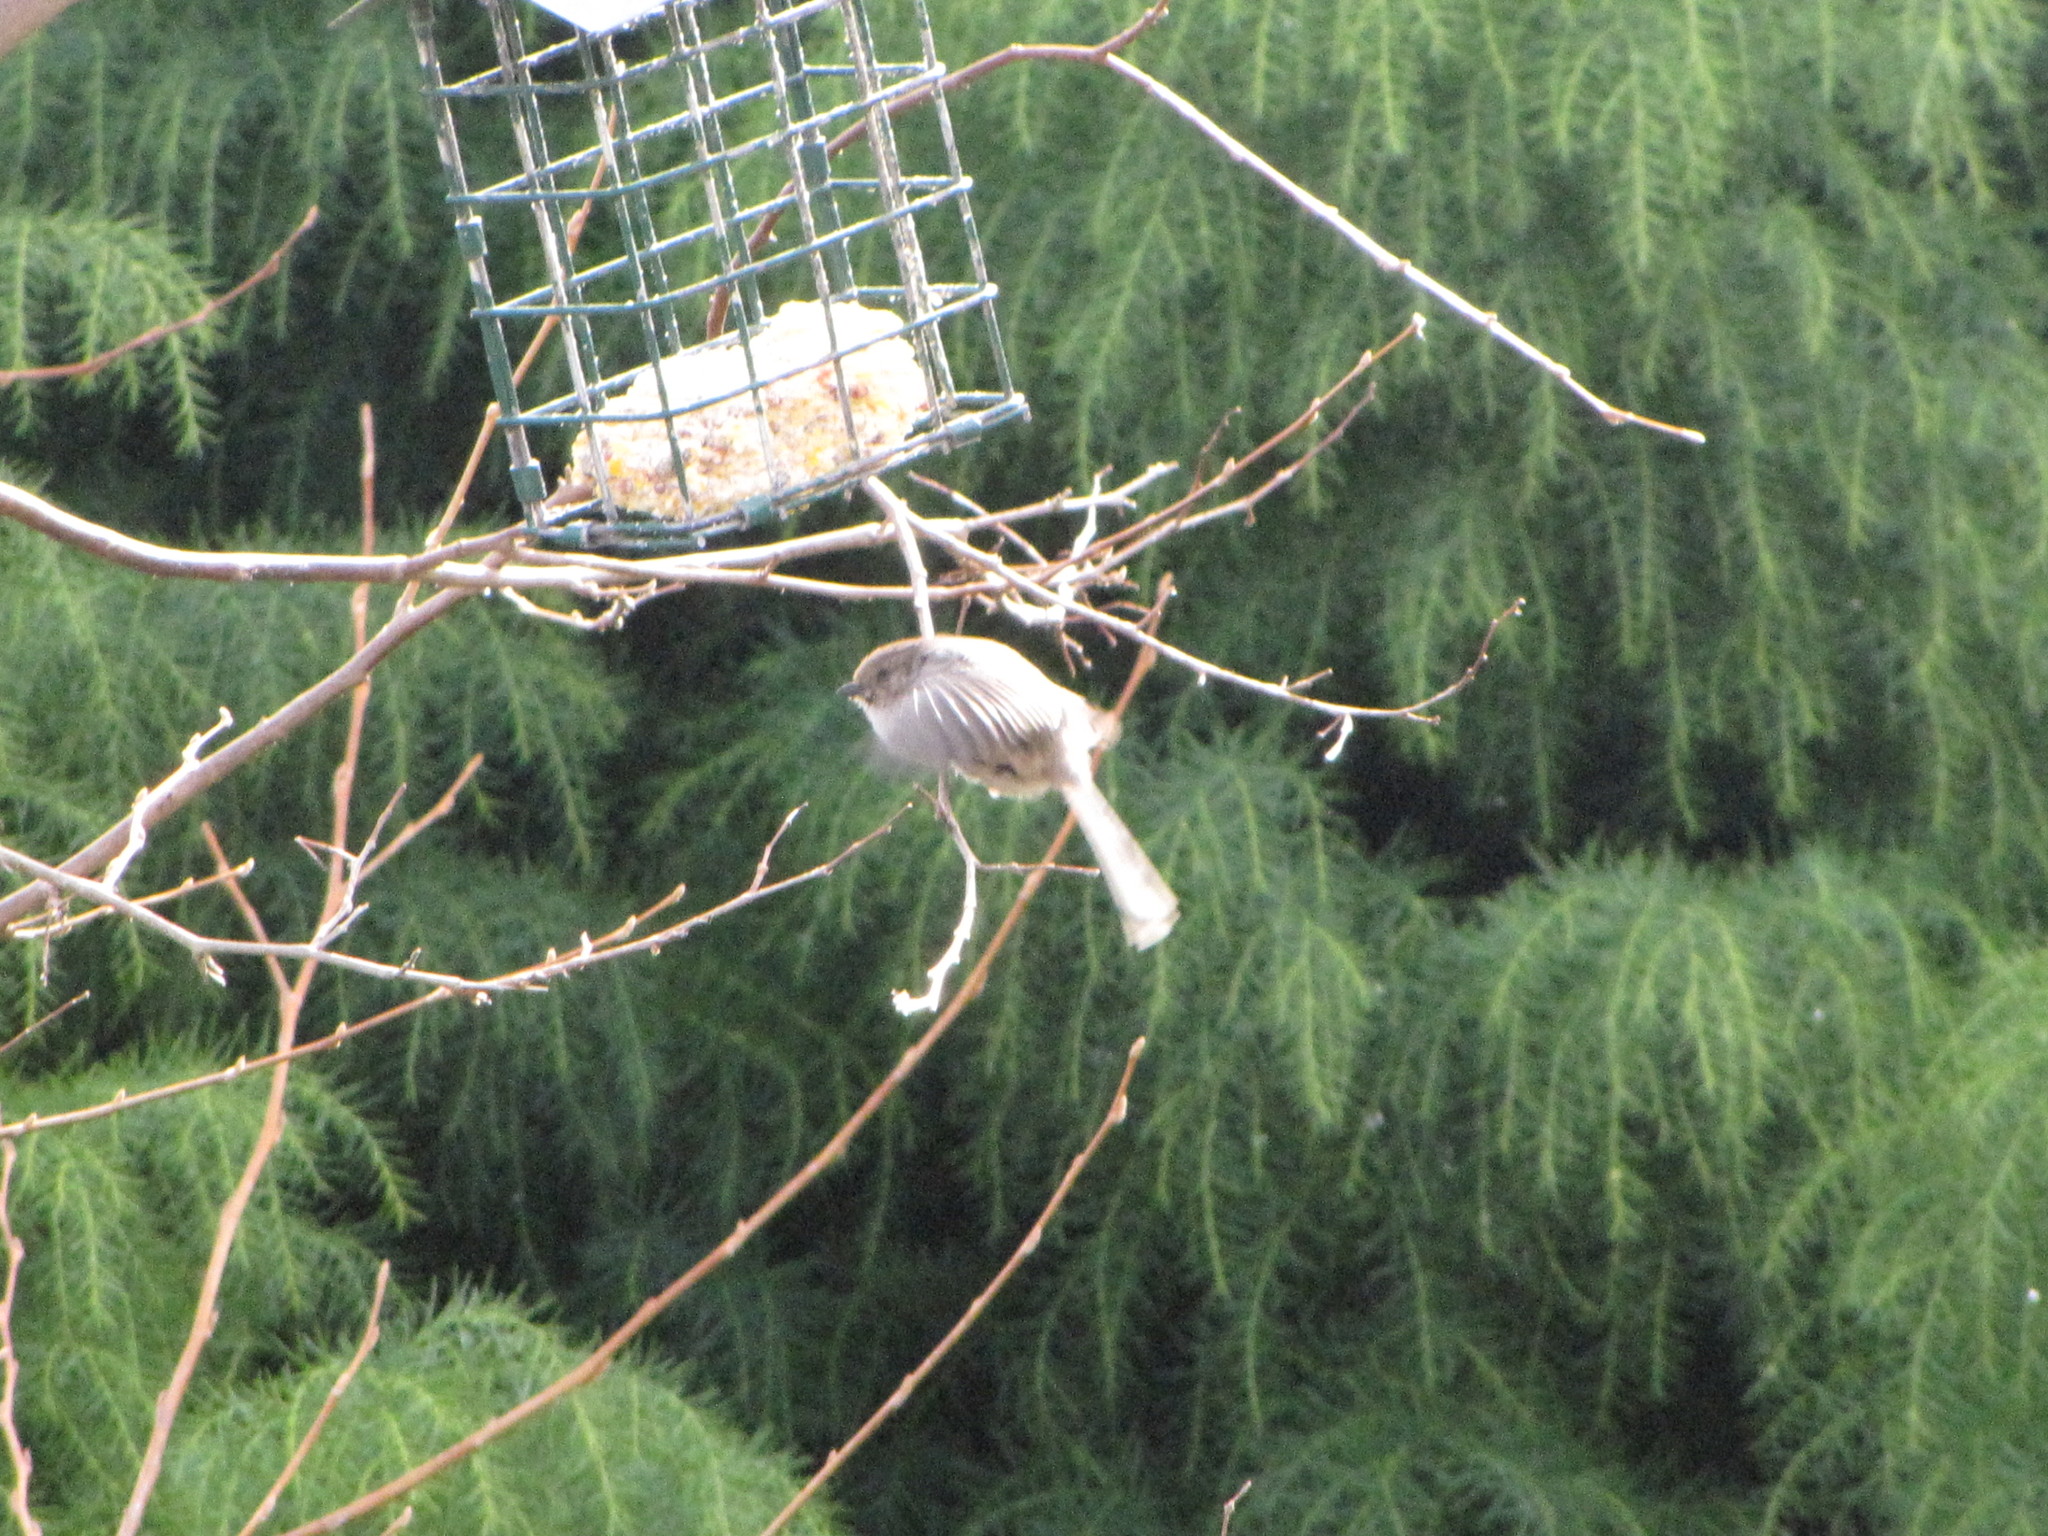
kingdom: Animalia
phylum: Chordata
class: Aves
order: Passeriformes
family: Aegithalidae
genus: Psaltriparus
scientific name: Psaltriparus minimus
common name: American bushtit
